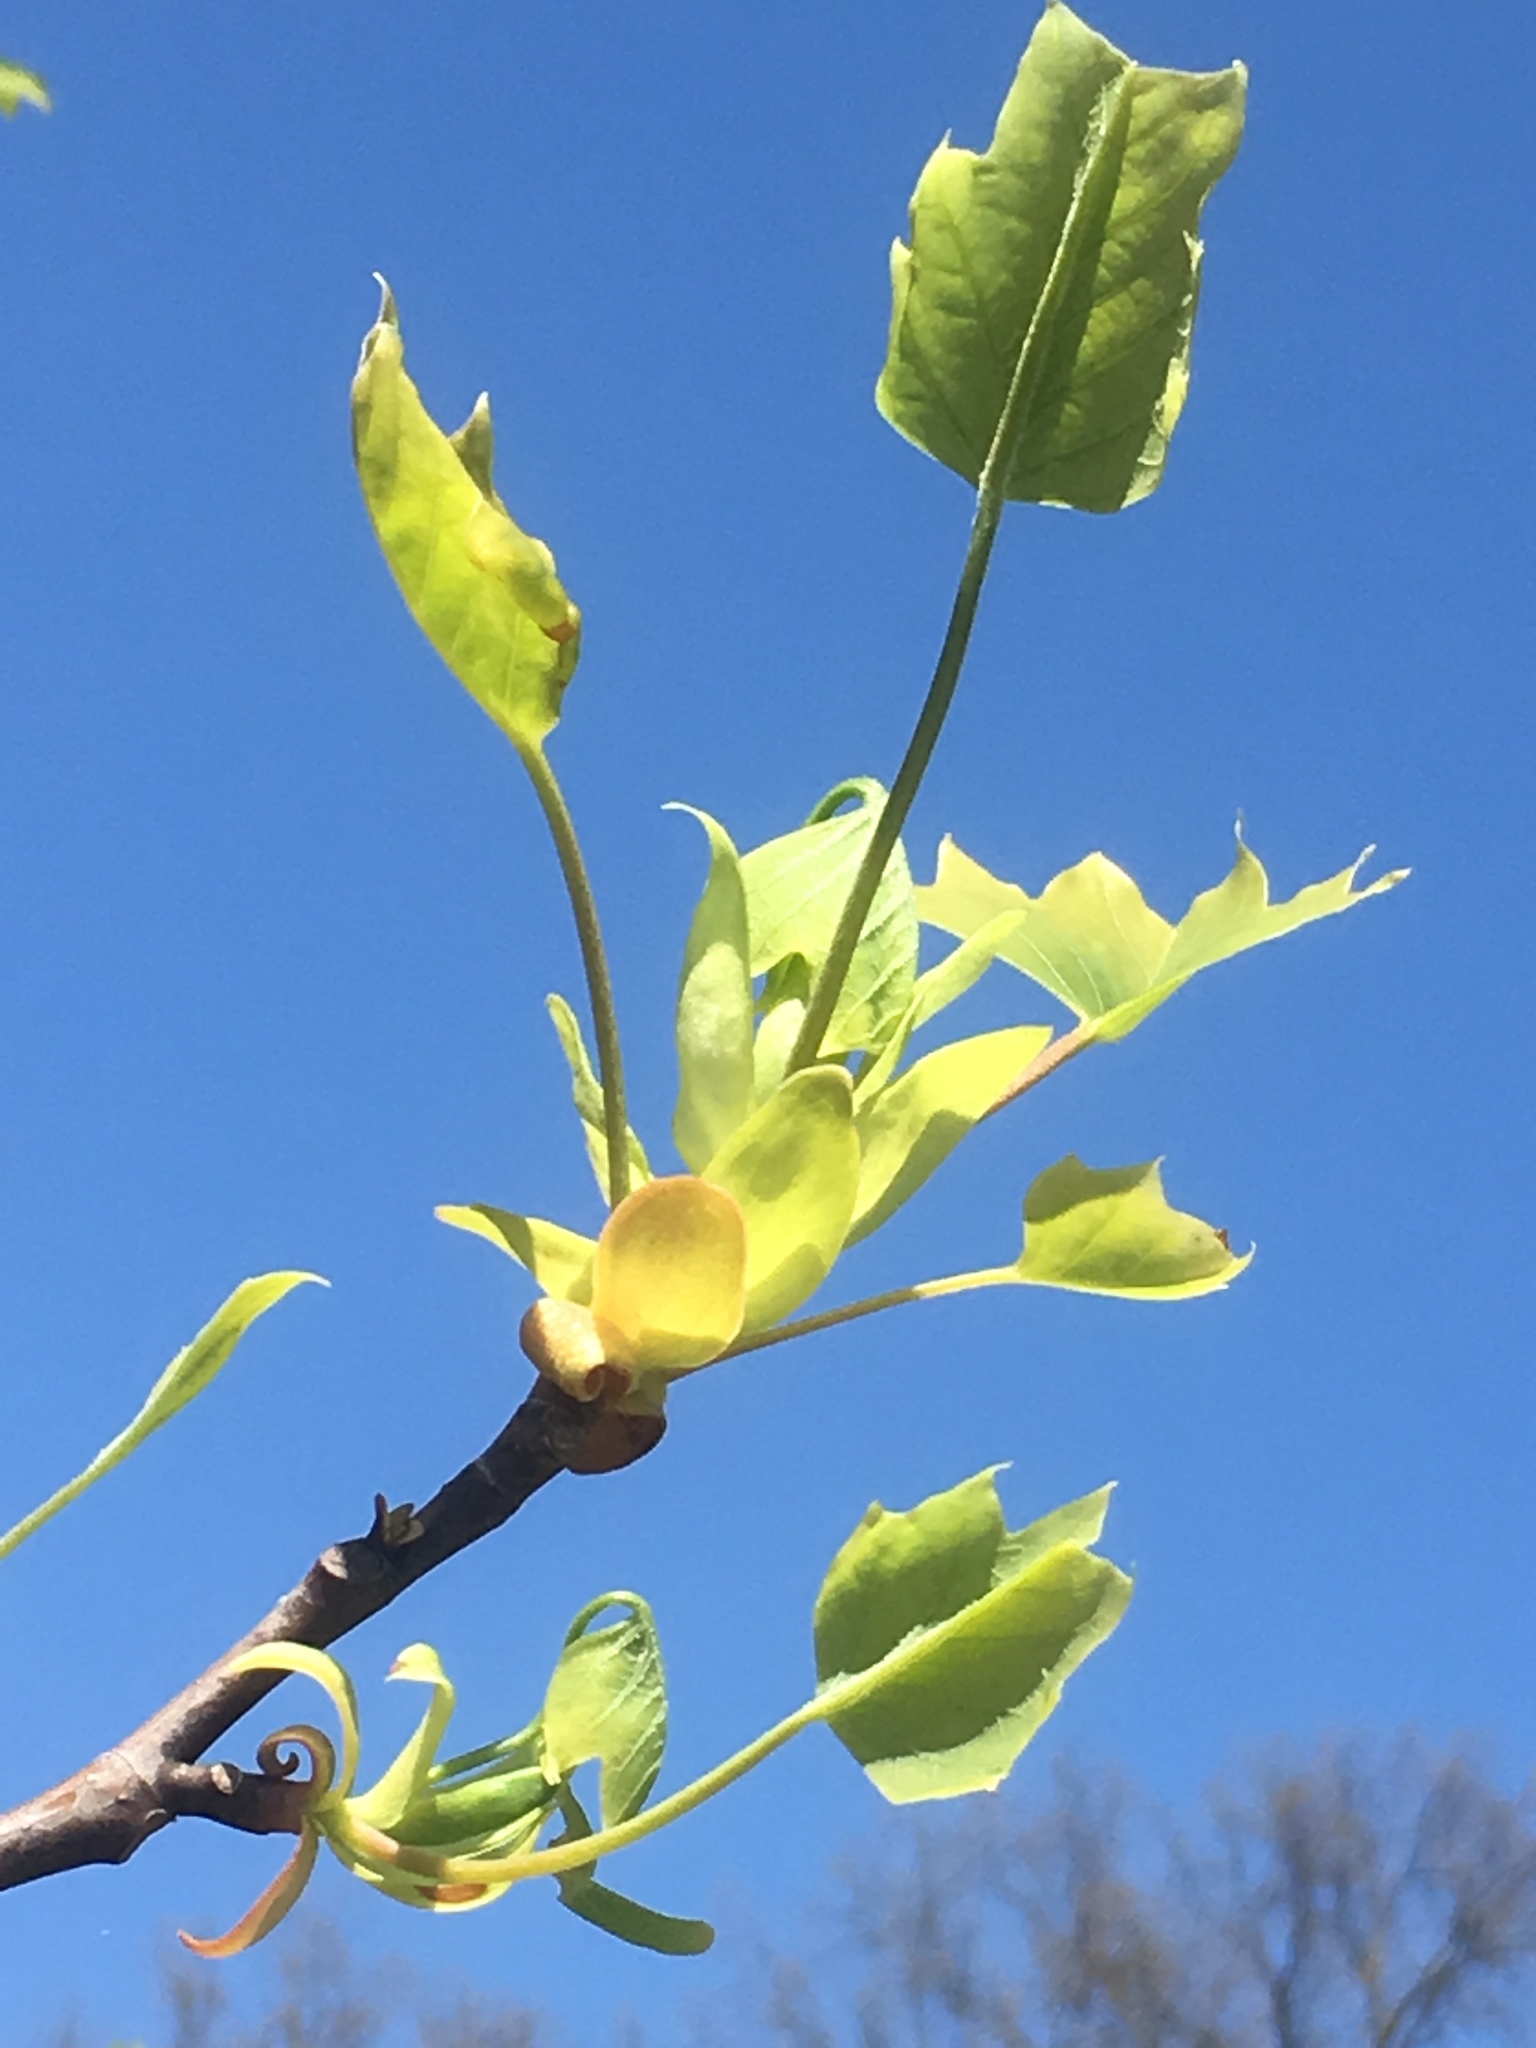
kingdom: Plantae
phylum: Tracheophyta
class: Magnoliopsida
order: Magnoliales
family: Magnoliaceae
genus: Liriodendron
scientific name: Liriodendron tulipifera
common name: Tulip tree
